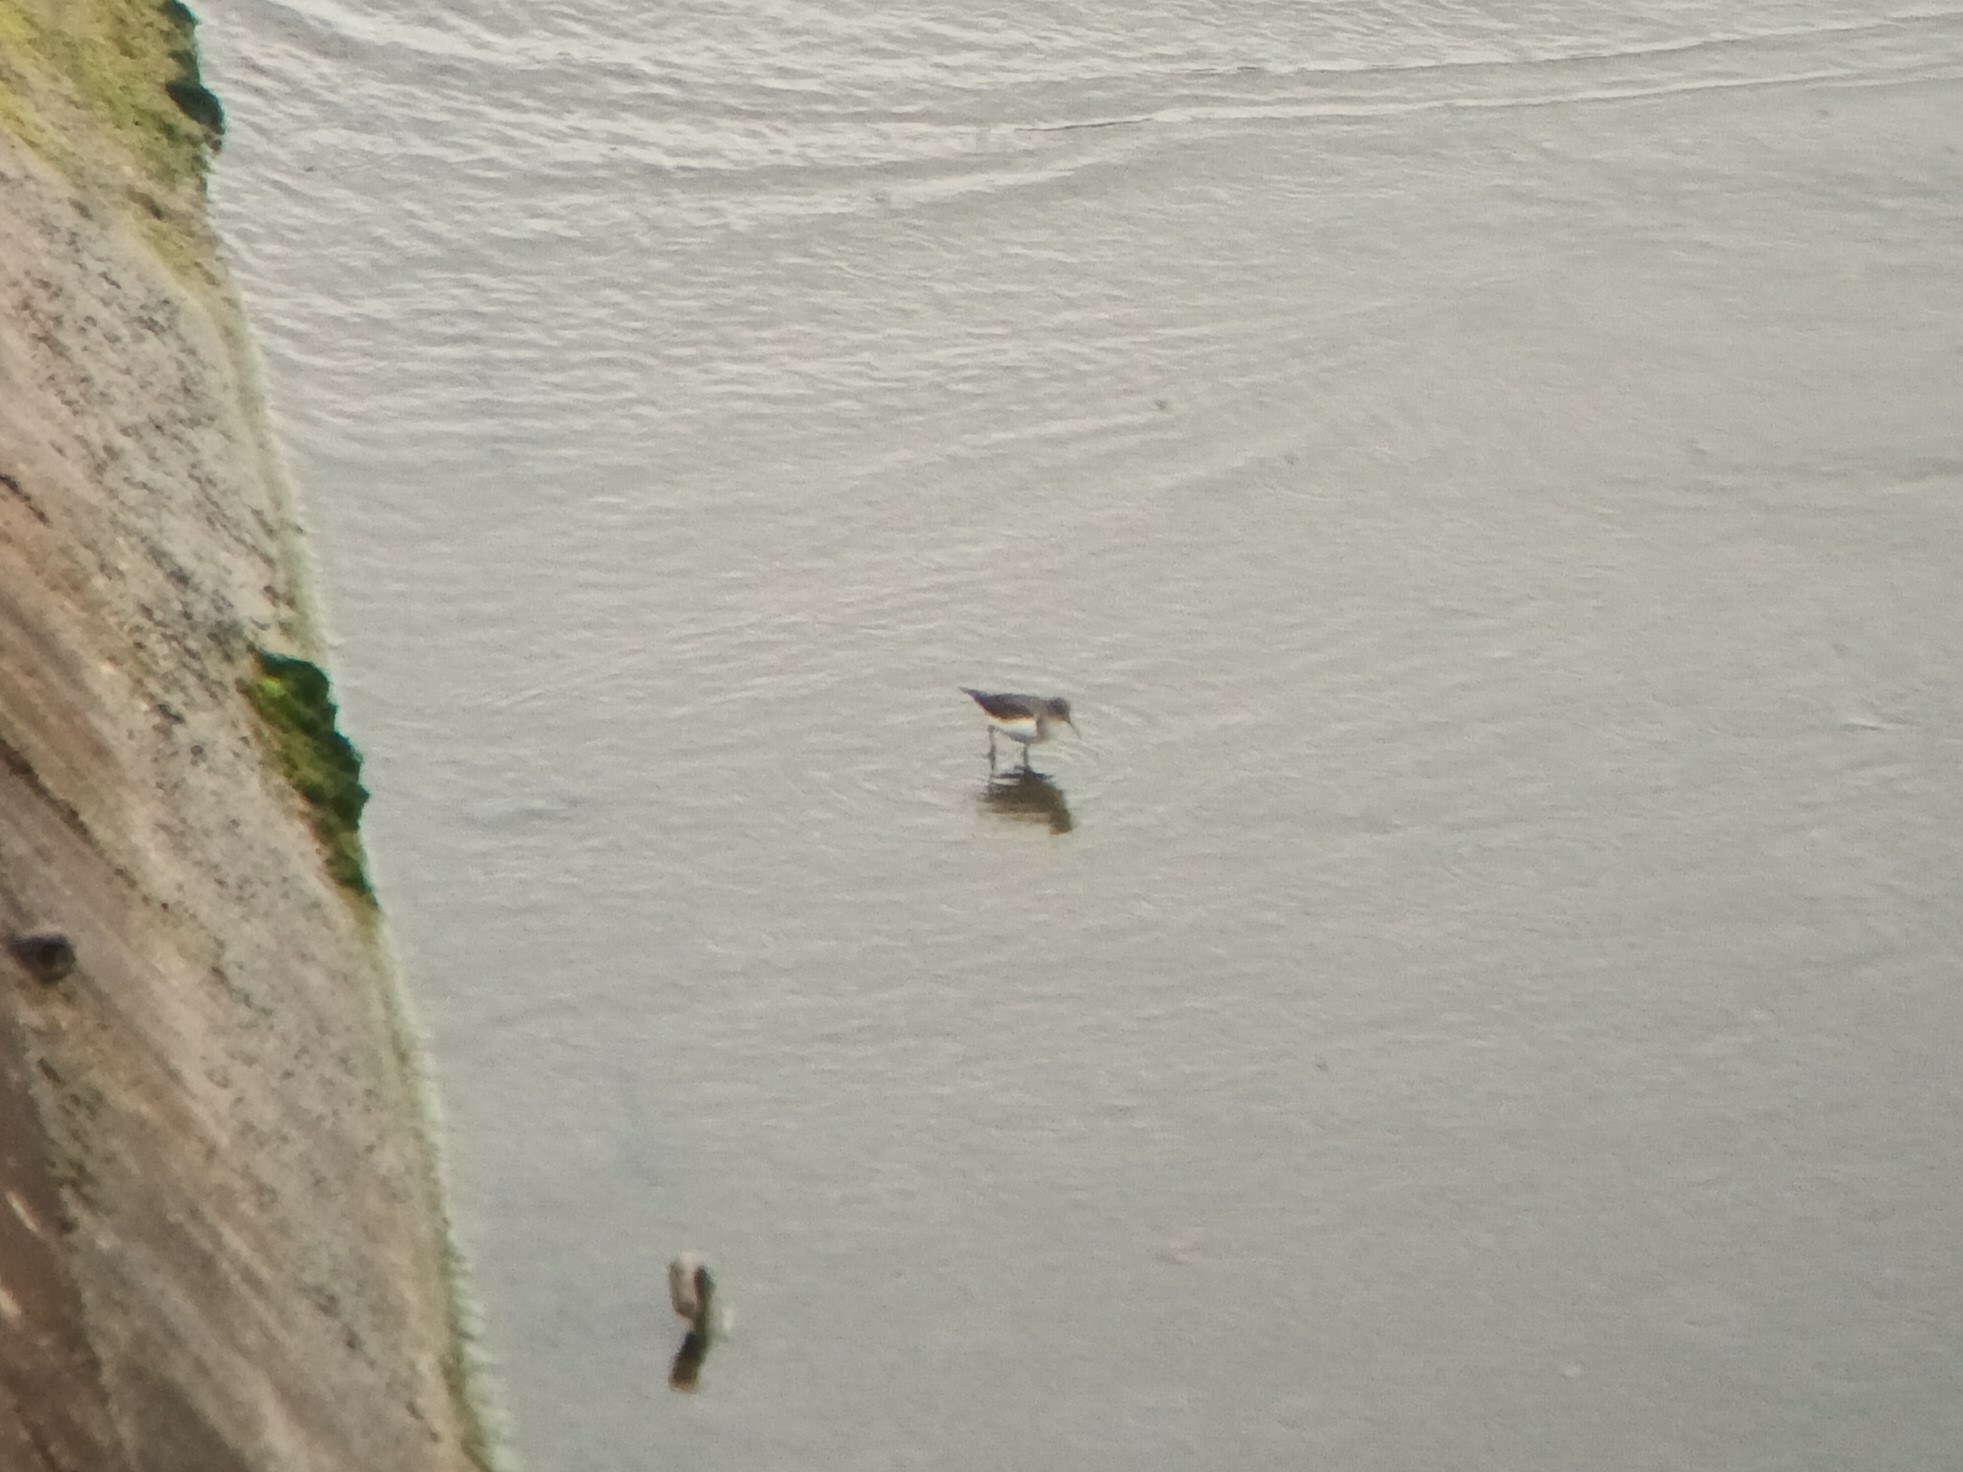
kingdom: Animalia
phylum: Chordata
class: Aves
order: Charadriiformes
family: Scolopacidae
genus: Actitis
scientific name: Actitis hypoleucos
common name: Common sandpiper
